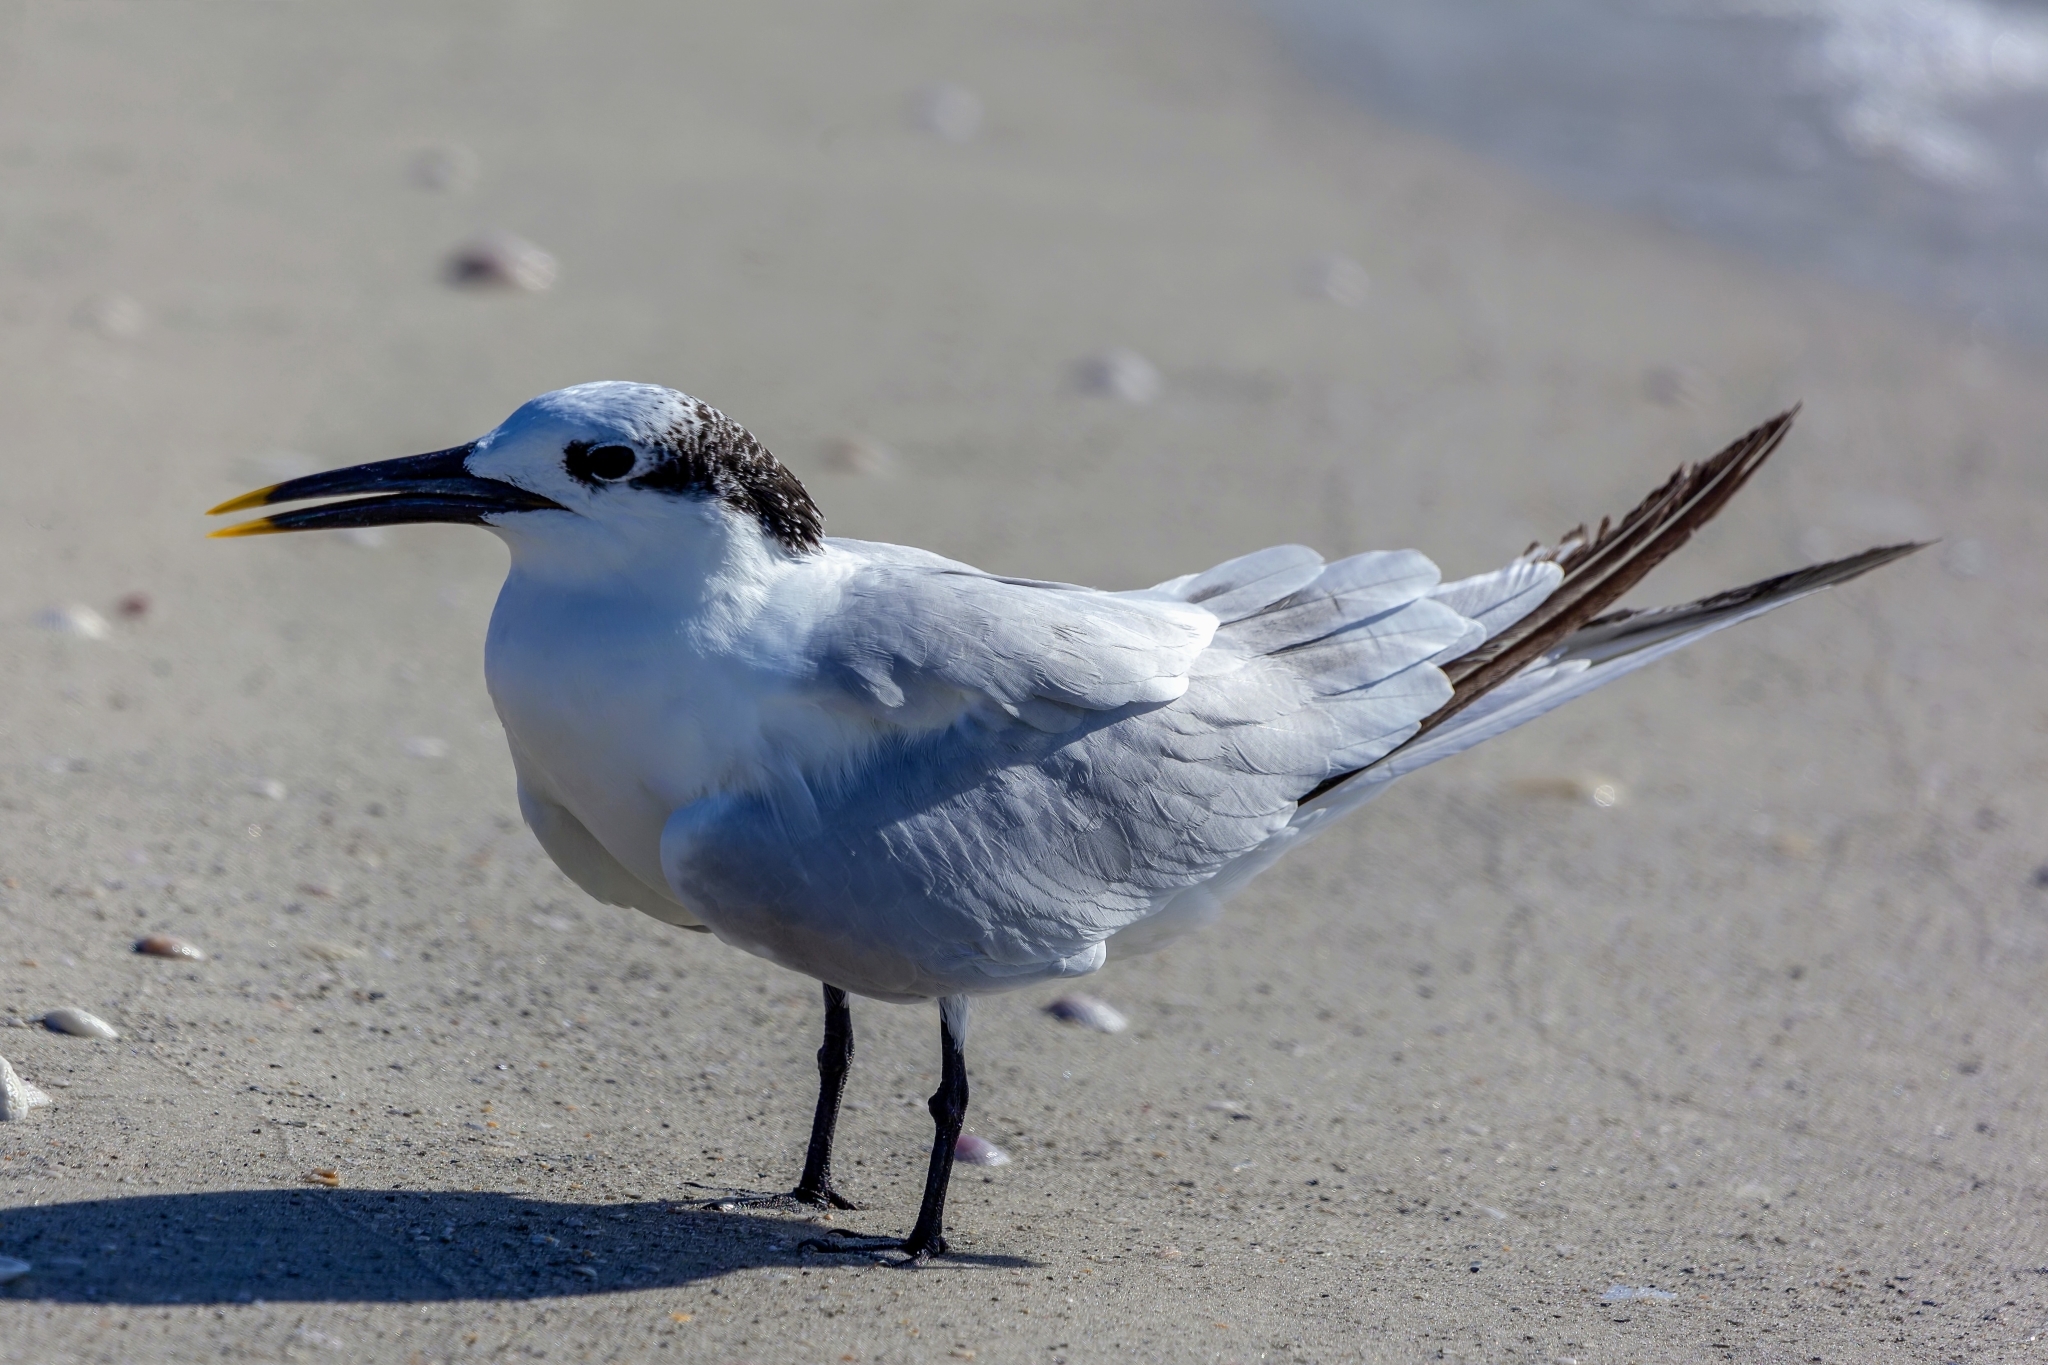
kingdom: Animalia
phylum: Chordata
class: Aves
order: Charadriiformes
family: Laridae
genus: Thalasseus
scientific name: Thalasseus sandvicensis
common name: Sandwich tern
